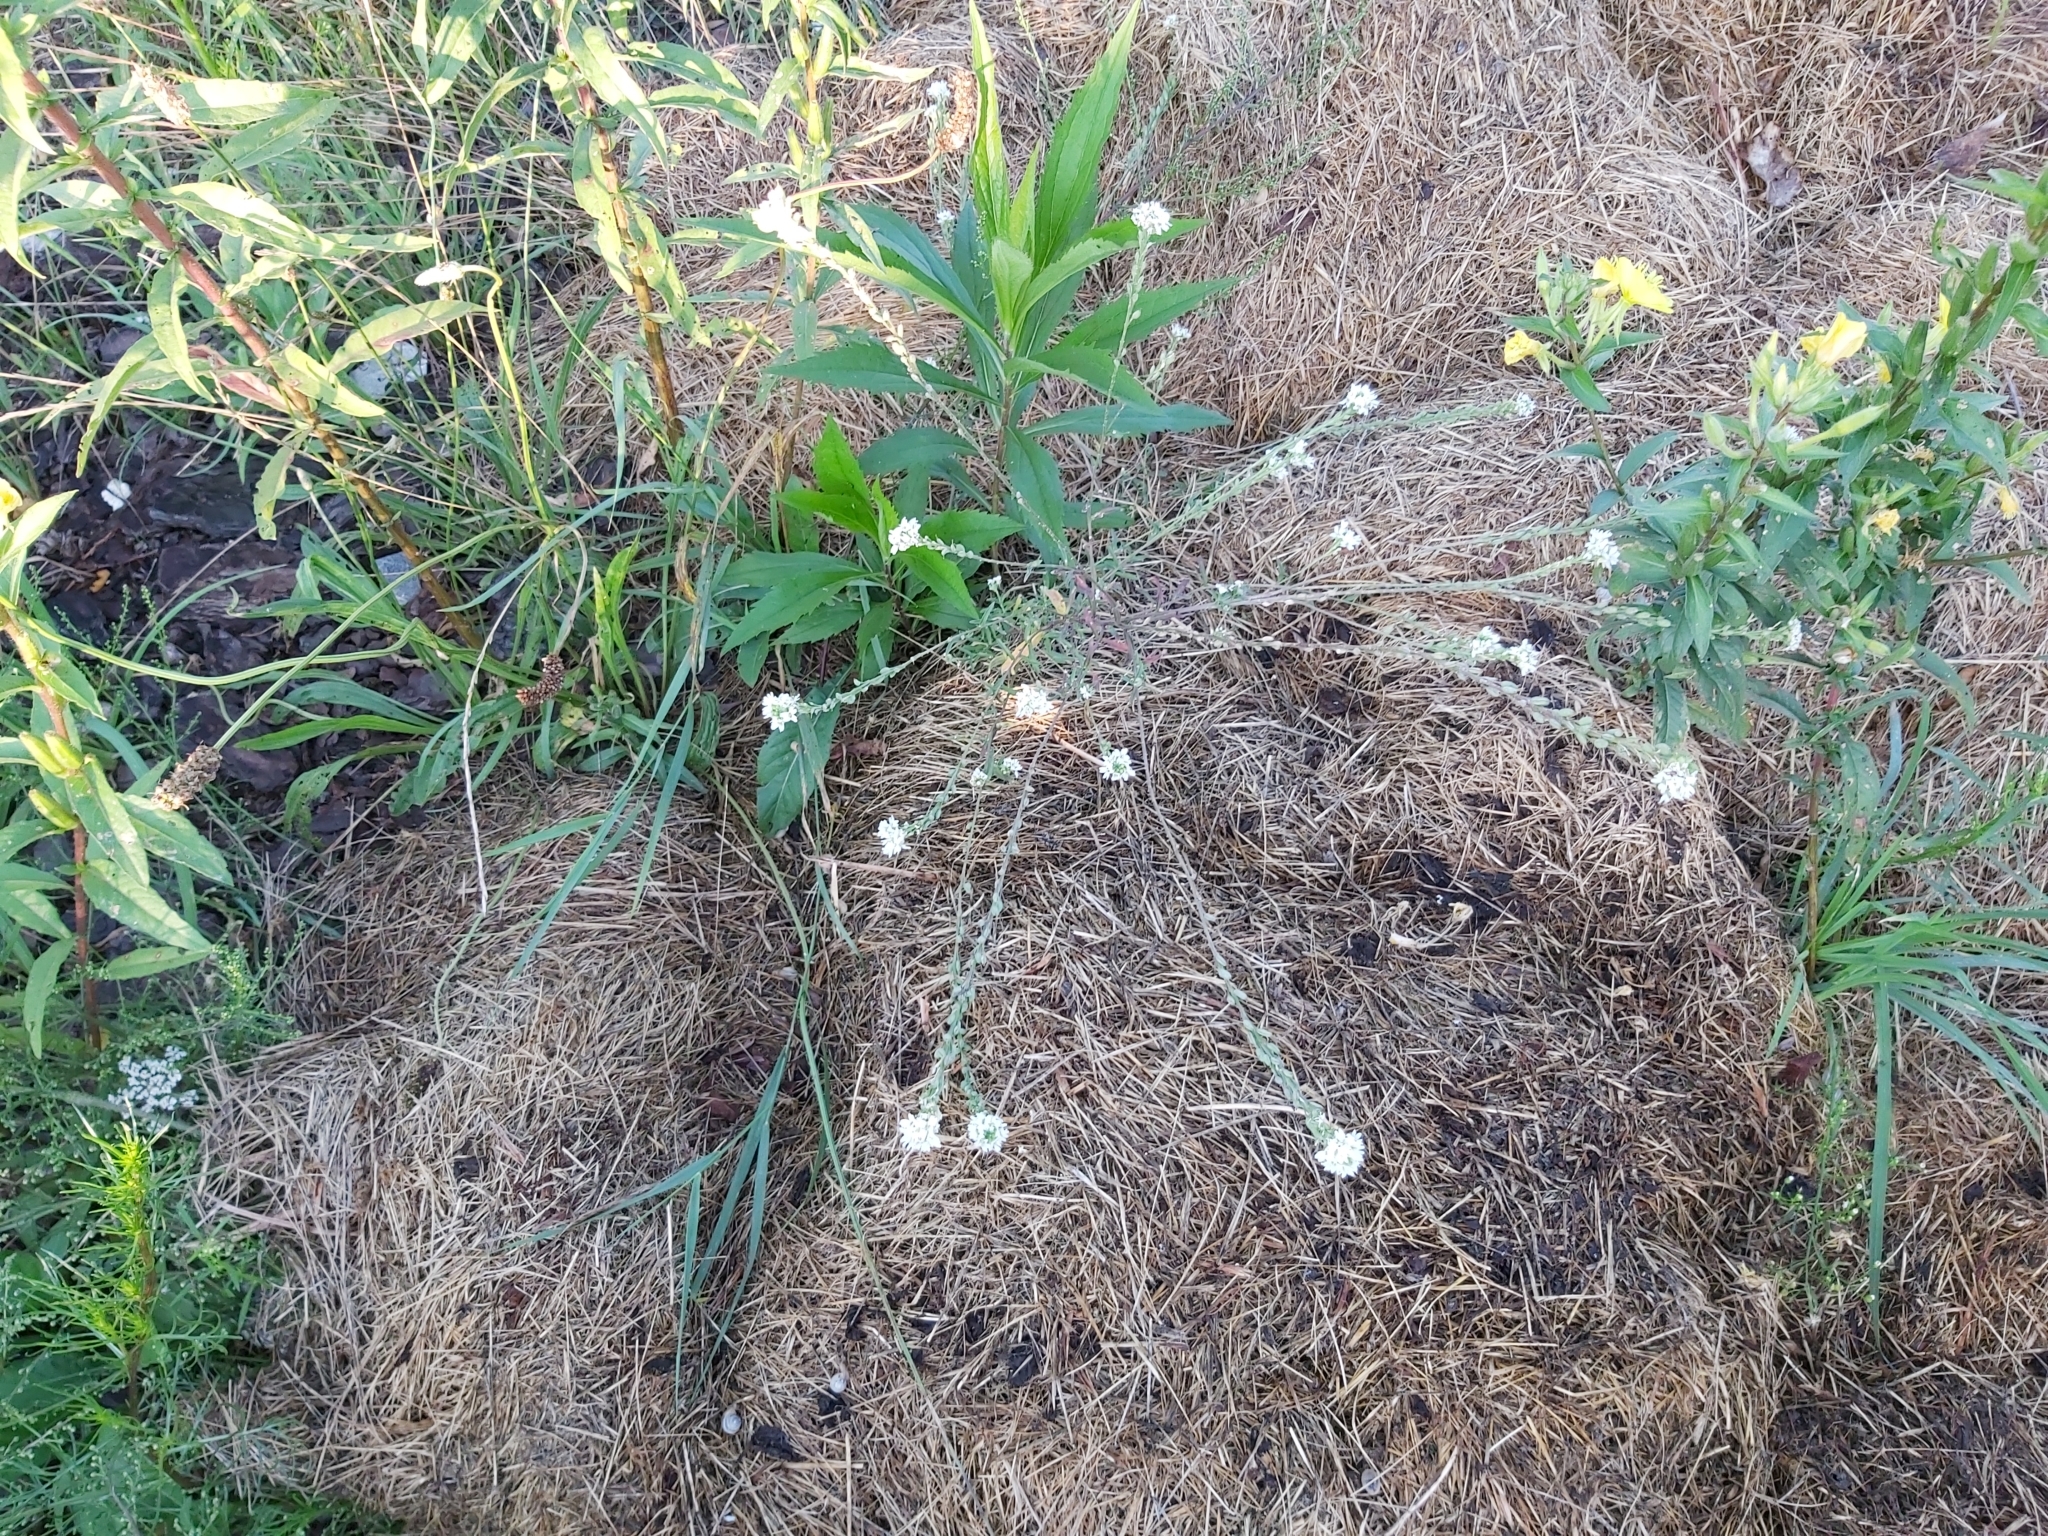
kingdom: Plantae
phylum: Tracheophyta
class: Magnoliopsida
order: Brassicales
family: Brassicaceae
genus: Berteroa
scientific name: Berteroa incana
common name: Hoary alison
